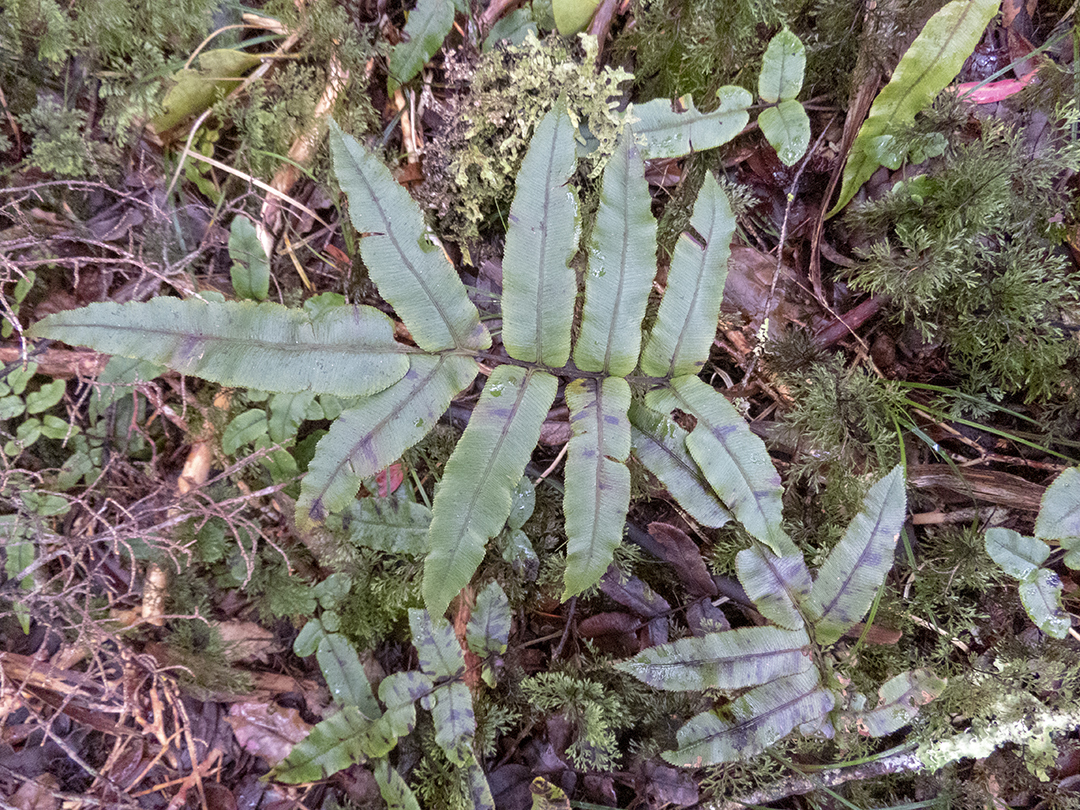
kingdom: Plantae
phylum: Tracheophyta
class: Polypodiopsida
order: Polypodiales
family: Blechnaceae
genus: Parablechnum
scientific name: Parablechnum procerum
